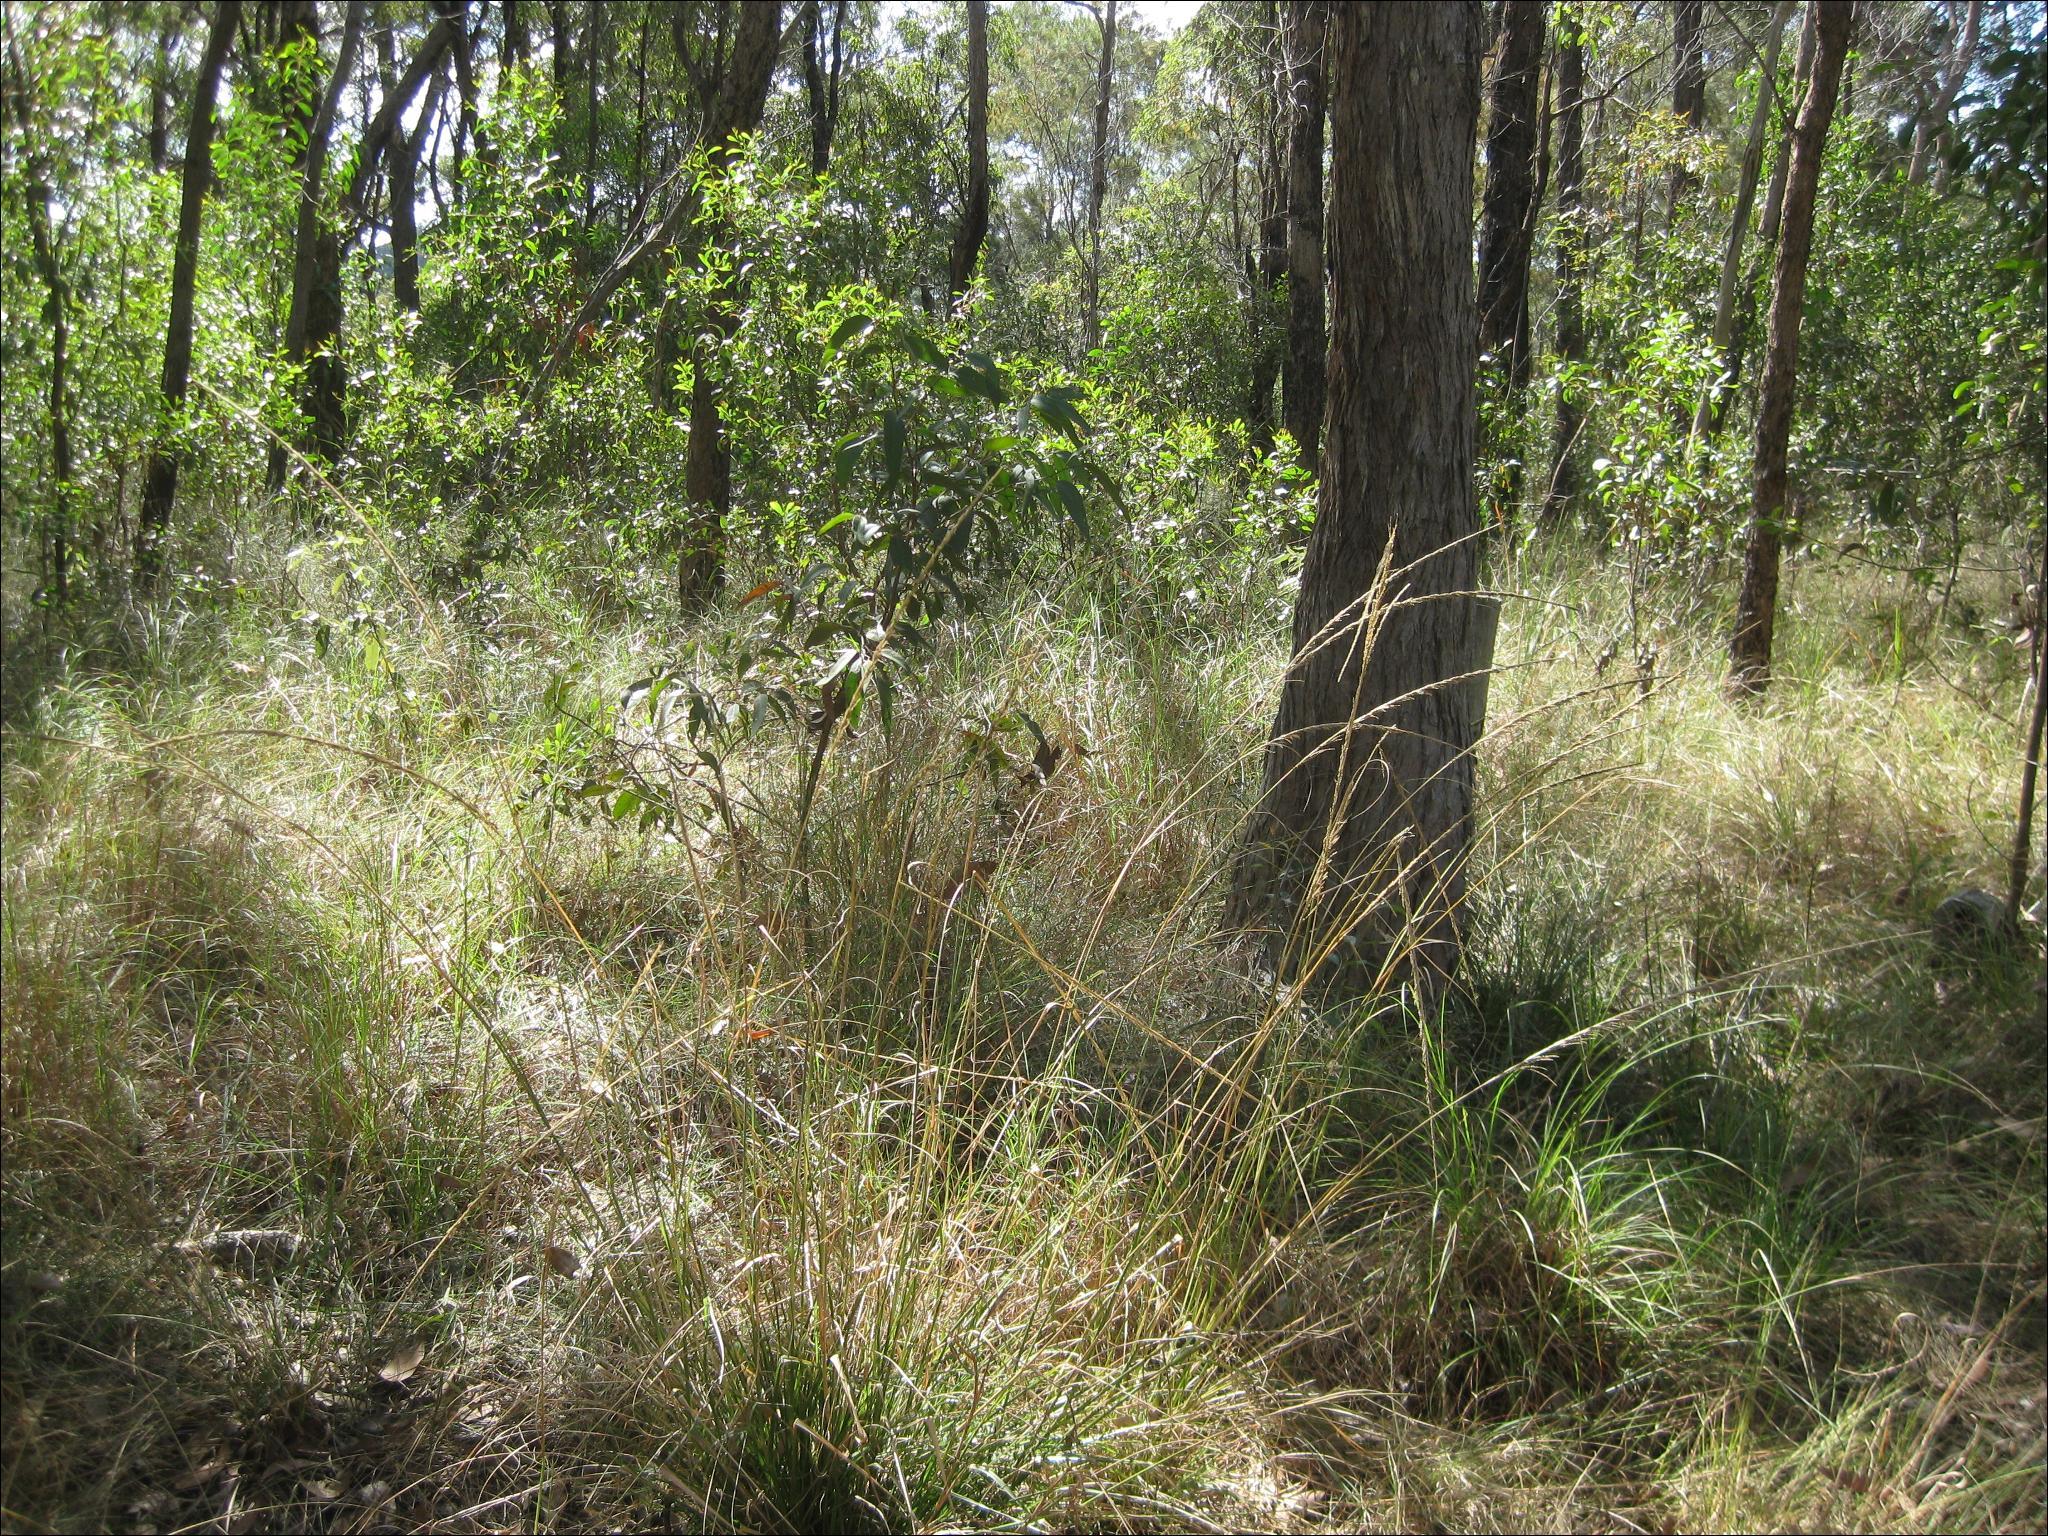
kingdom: Plantae
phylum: Tracheophyta
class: Liliopsida
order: Poales
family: Poaceae
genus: Sporobolus
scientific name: Sporobolus fertilis
